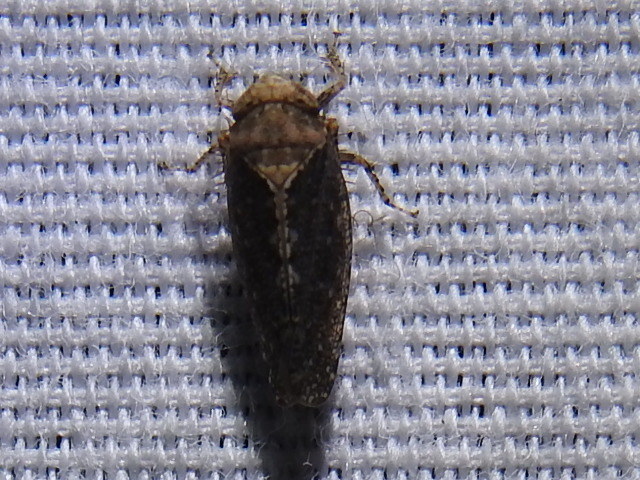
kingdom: Animalia
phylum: Arthropoda
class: Insecta
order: Hemiptera
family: Cicadellidae
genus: Excultanus
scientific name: Excultanus excultus
